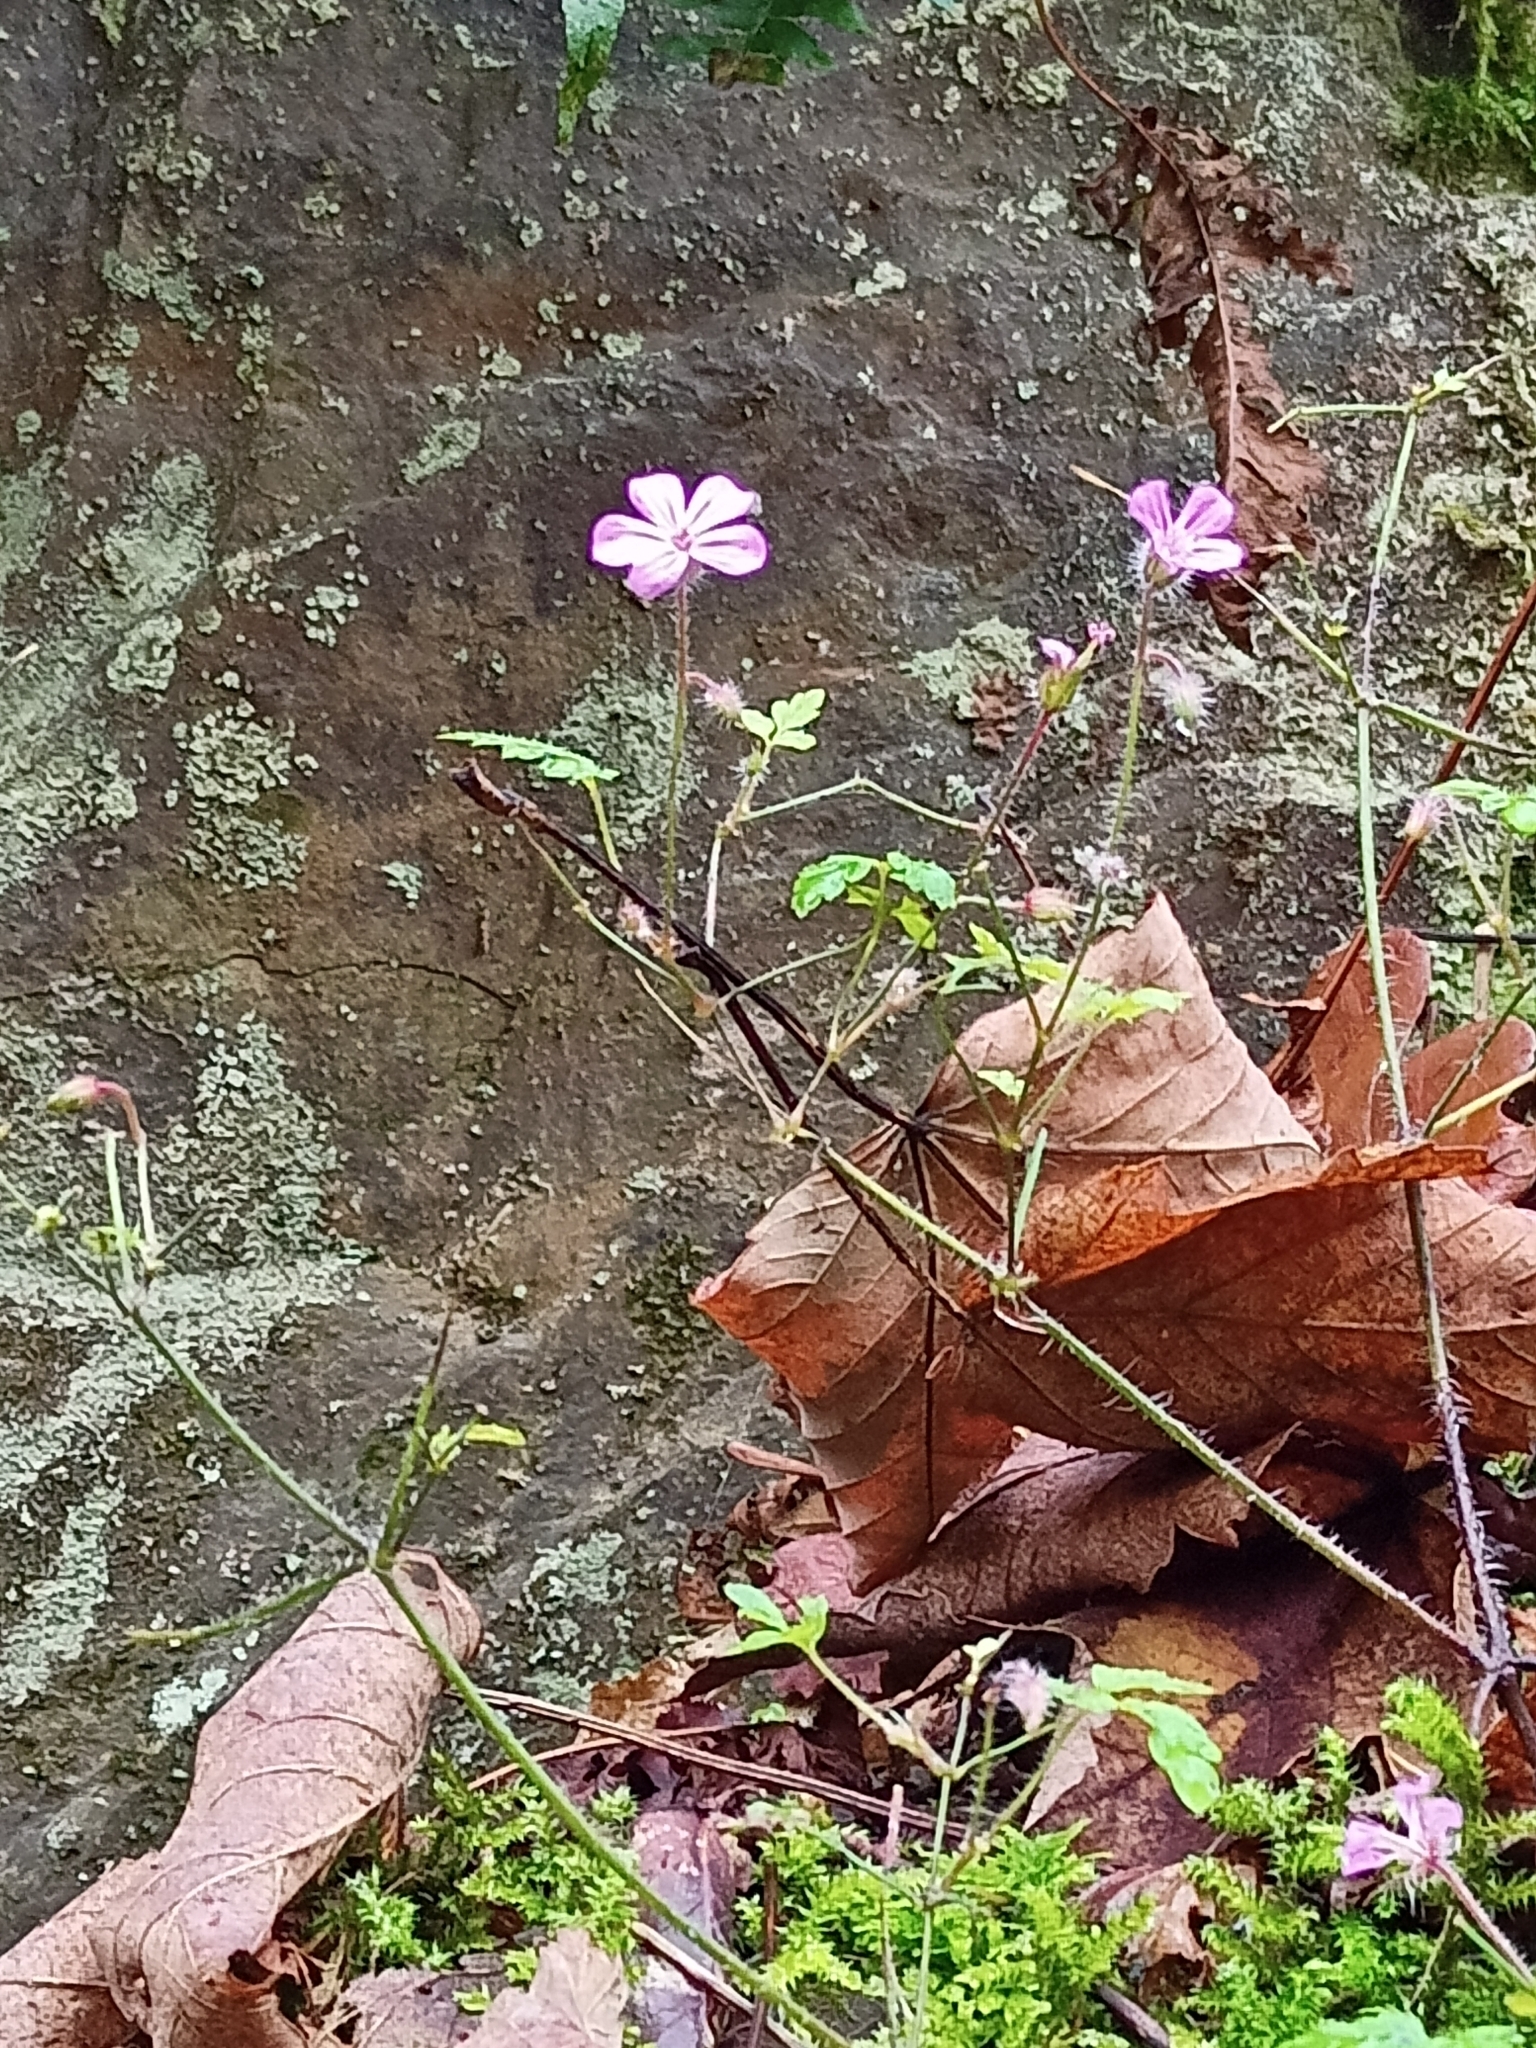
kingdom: Plantae
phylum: Tracheophyta
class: Magnoliopsida
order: Geraniales
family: Geraniaceae
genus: Geranium
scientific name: Geranium robertianum
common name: Herb-robert
